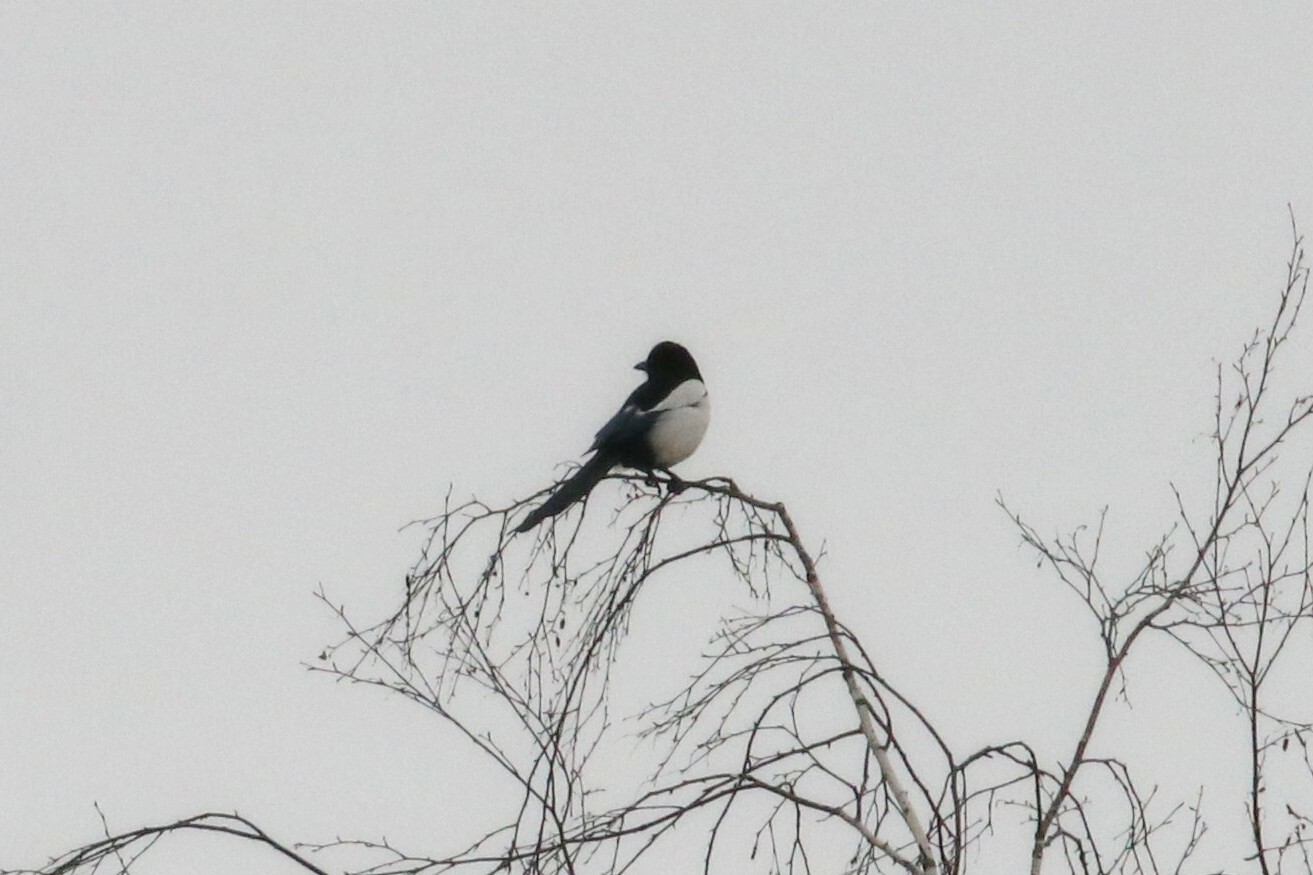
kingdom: Animalia
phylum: Chordata
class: Aves
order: Passeriformes
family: Corvidae
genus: Pica
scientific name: Pica pica
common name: Eurasian magpie
